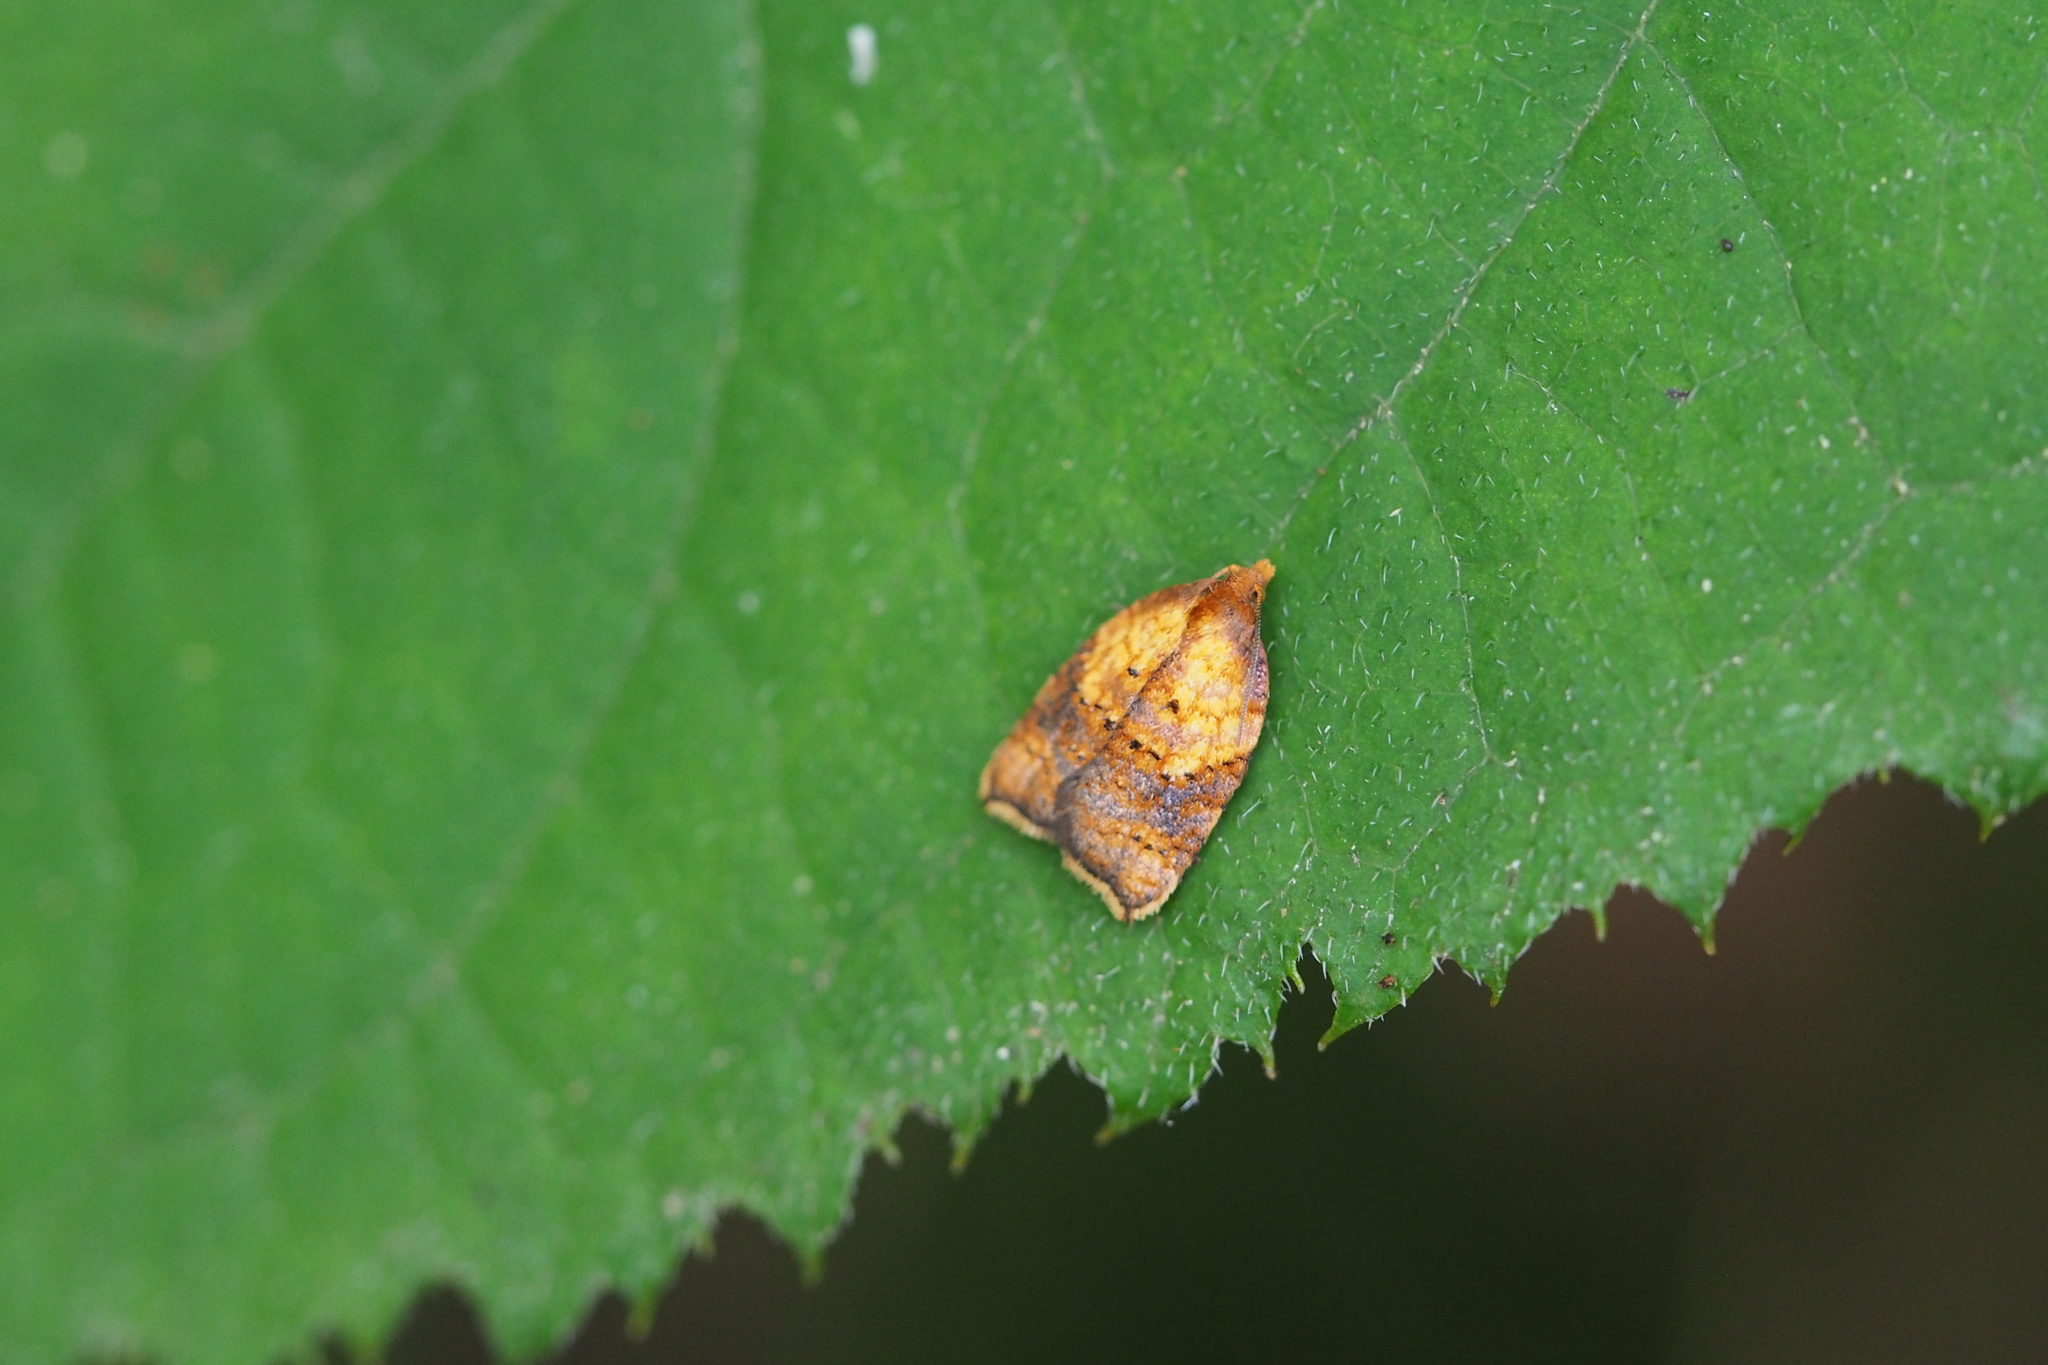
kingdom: Animalia
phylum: Arthropoda
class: Insecta
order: Lepidoptera
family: Tortricidae
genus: Acleris
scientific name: Acleris fuscotogata
